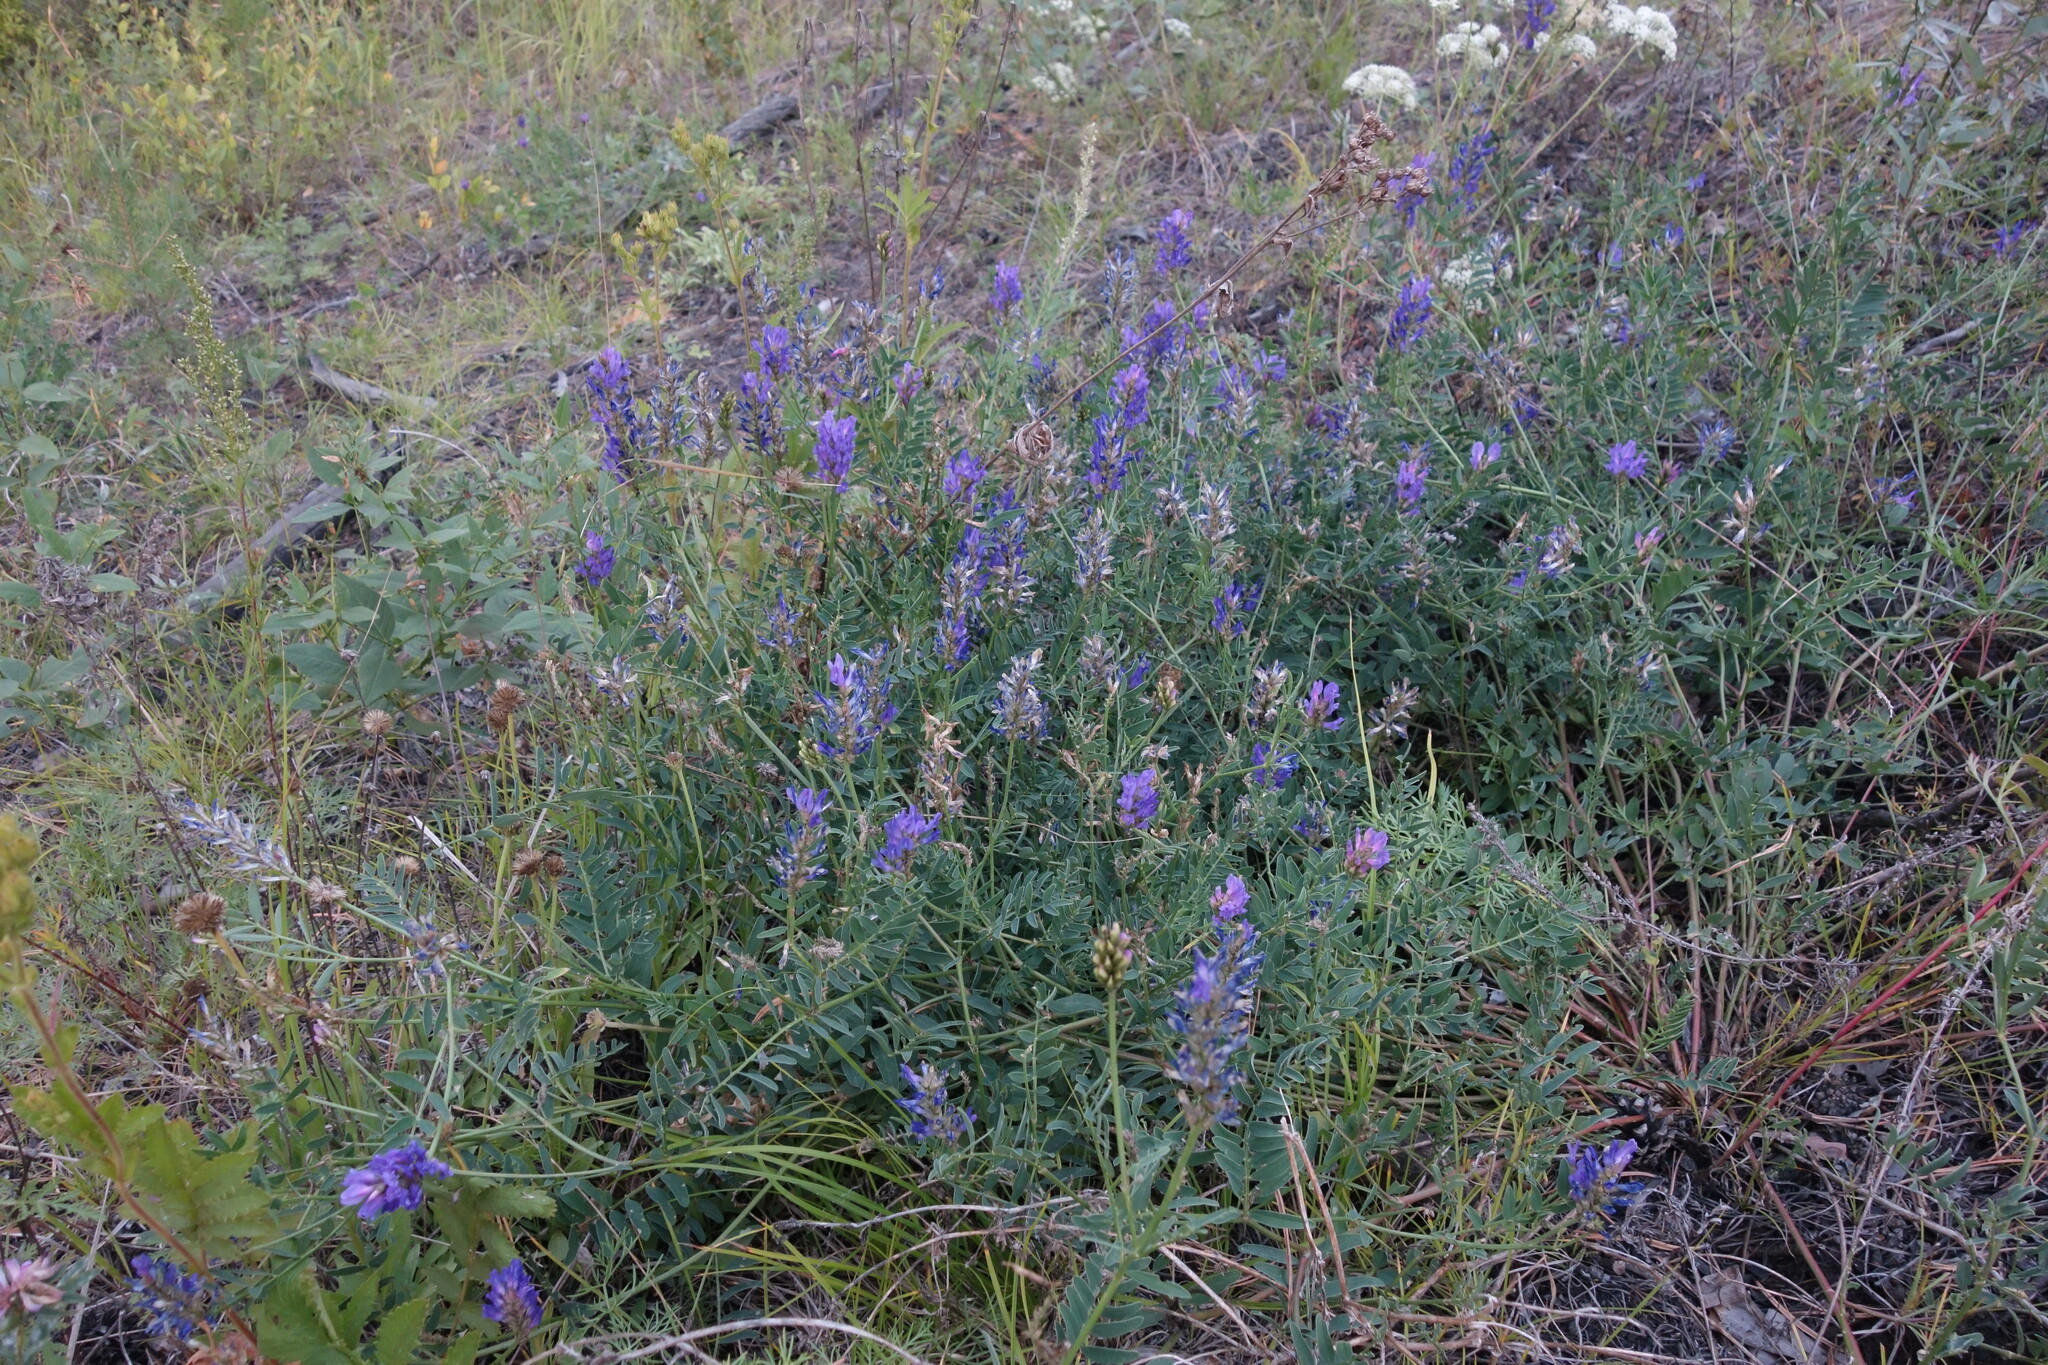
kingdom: Plantae
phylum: Tracheophyta
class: Magnoliopsida
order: Fabales
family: Fabaceae
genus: Astragalus
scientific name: Astragalus laxmannii
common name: Laxmann's milk-vetch
